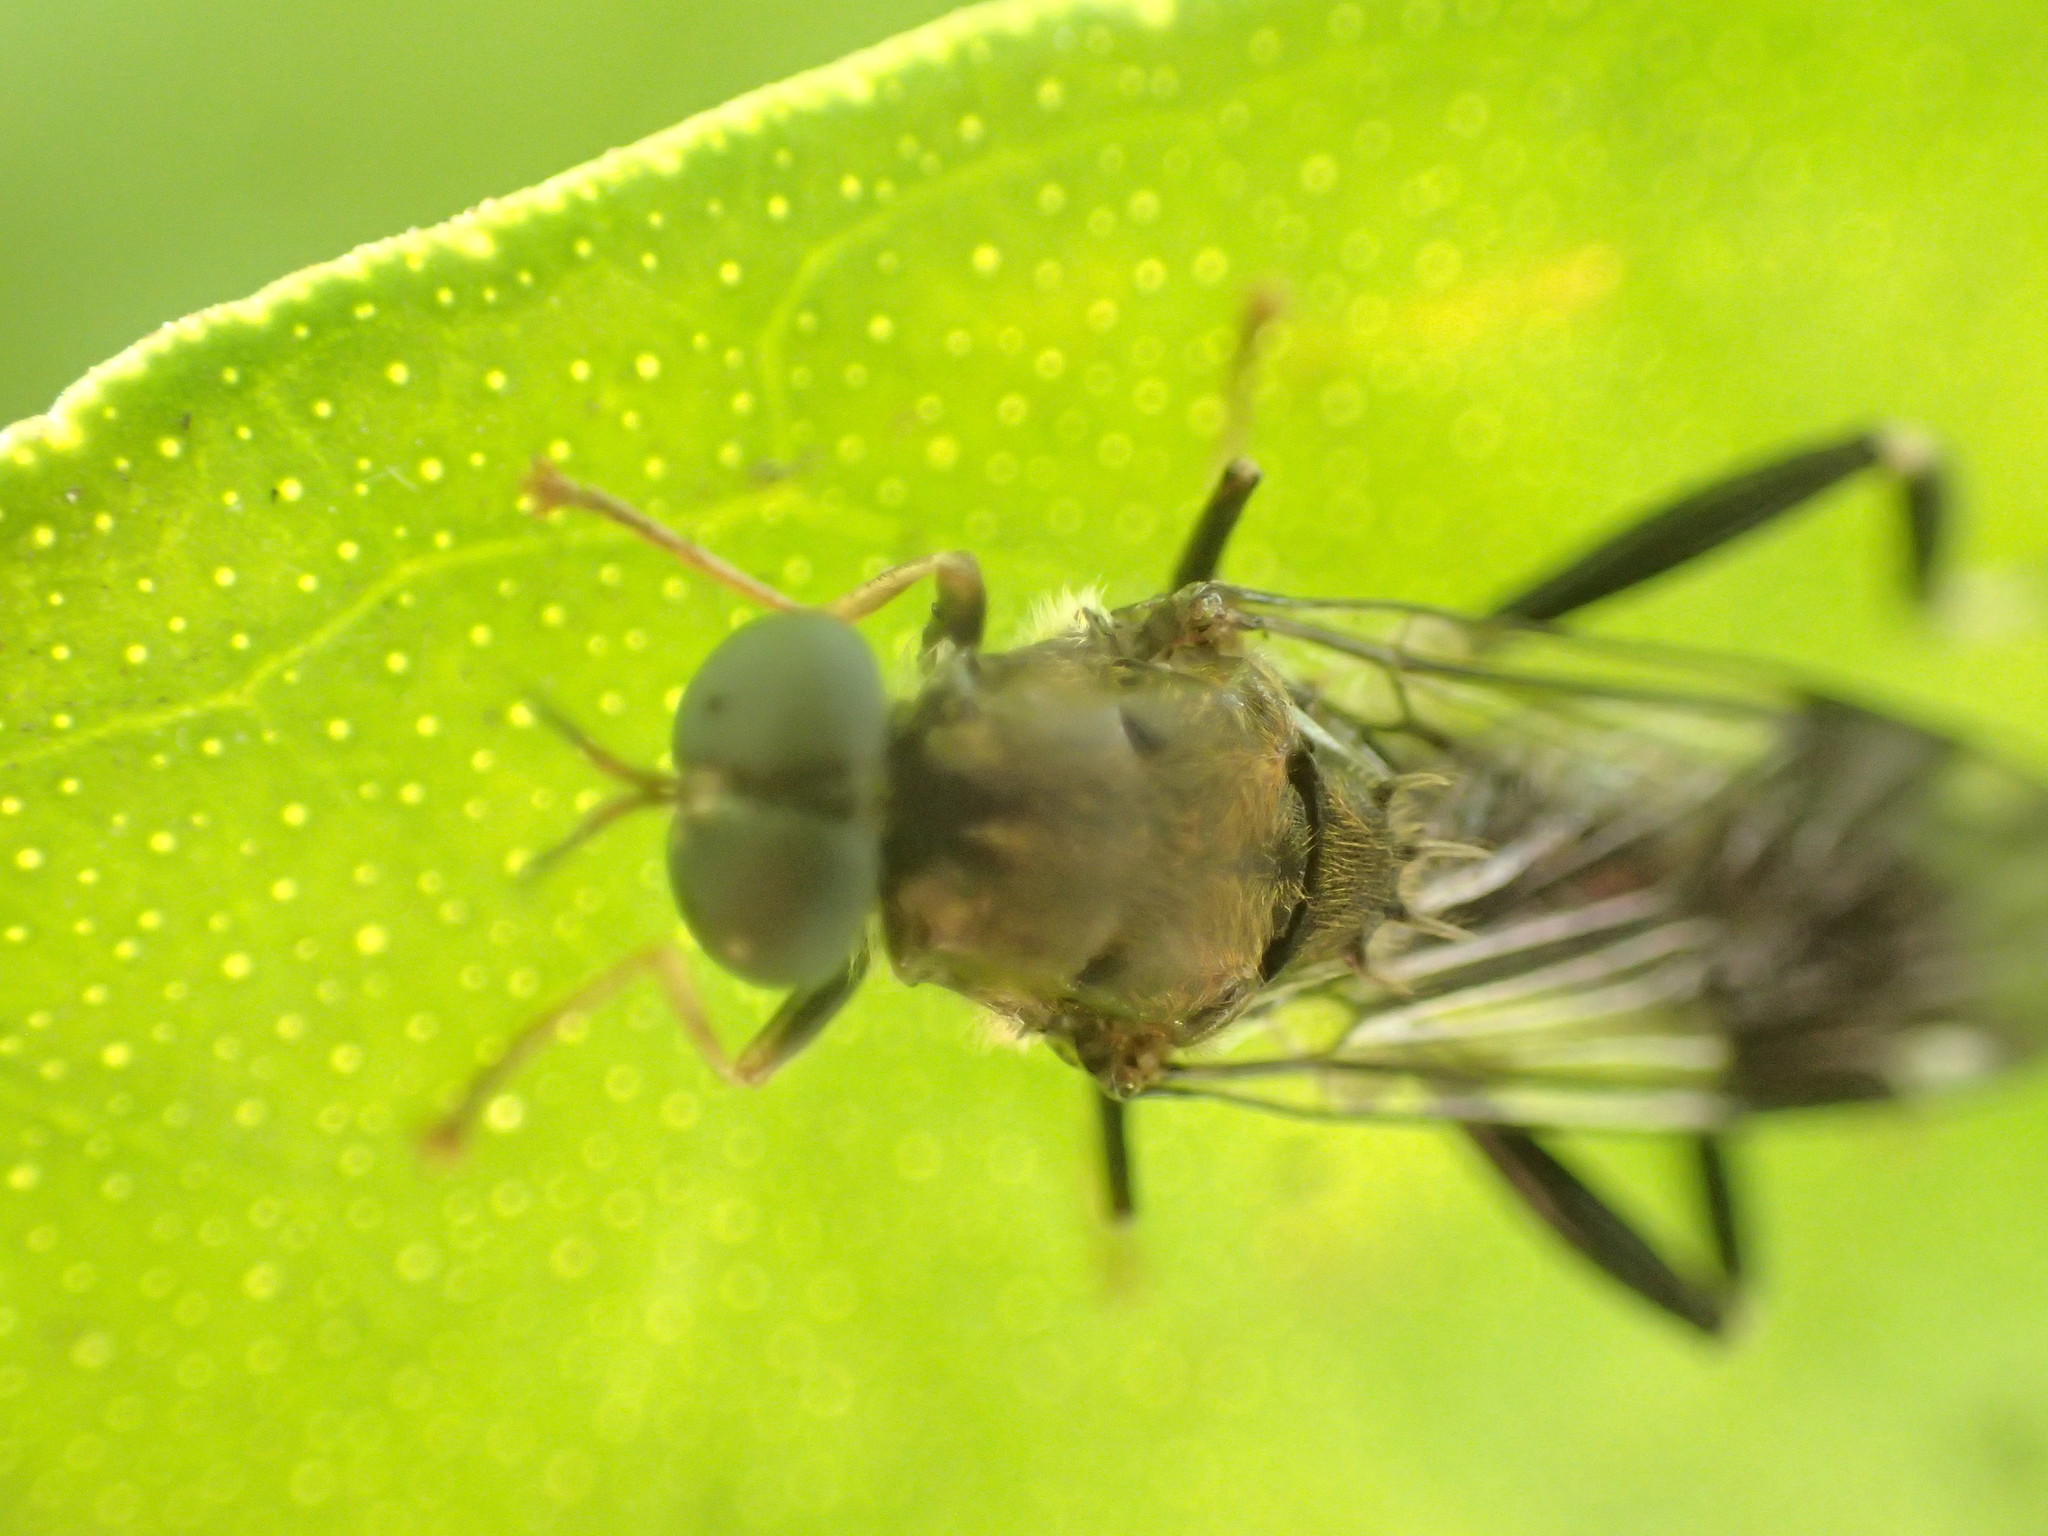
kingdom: Animalia
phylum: Arthropoda
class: Insecta
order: Diptera
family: Stratiomyidae
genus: Exaireta
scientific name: Exaireta spinigera
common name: Blue soldier fly
